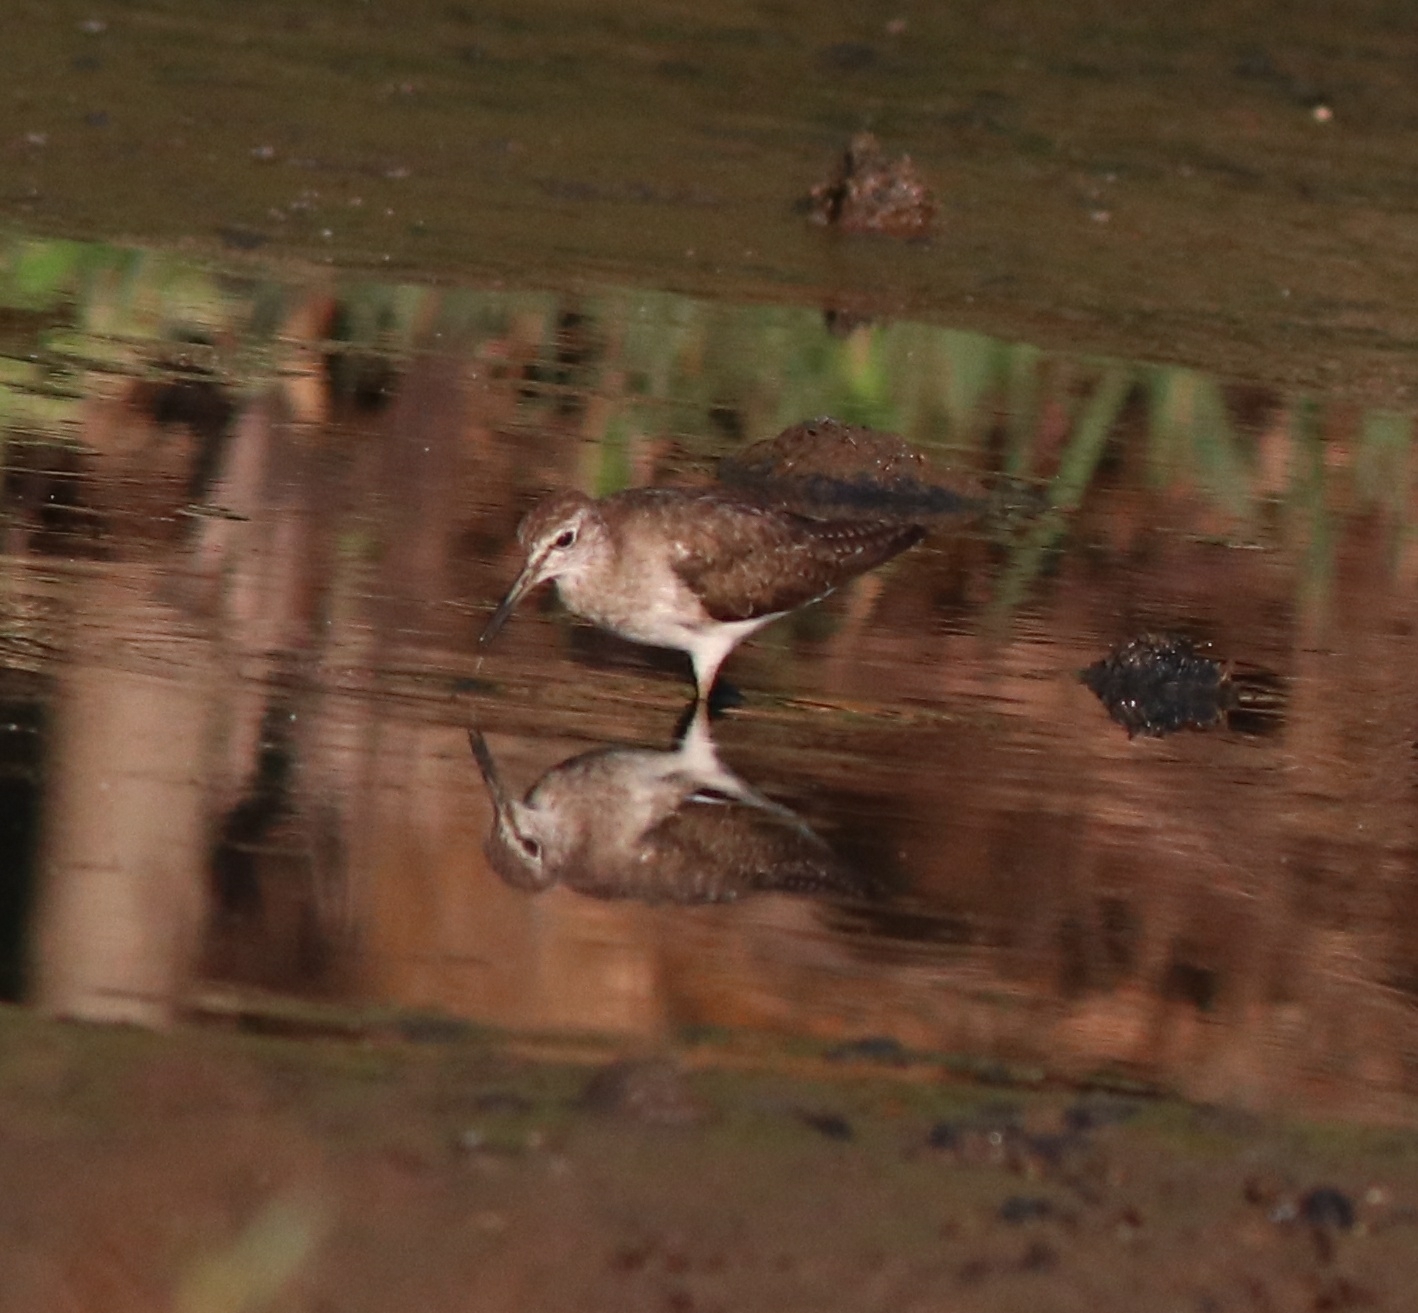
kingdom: Animalia
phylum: Chordata
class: Aves
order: Charadriiformes
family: Scolopacidae
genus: Actitis
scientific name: Actitis hypoleucos
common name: Common sandpiper
